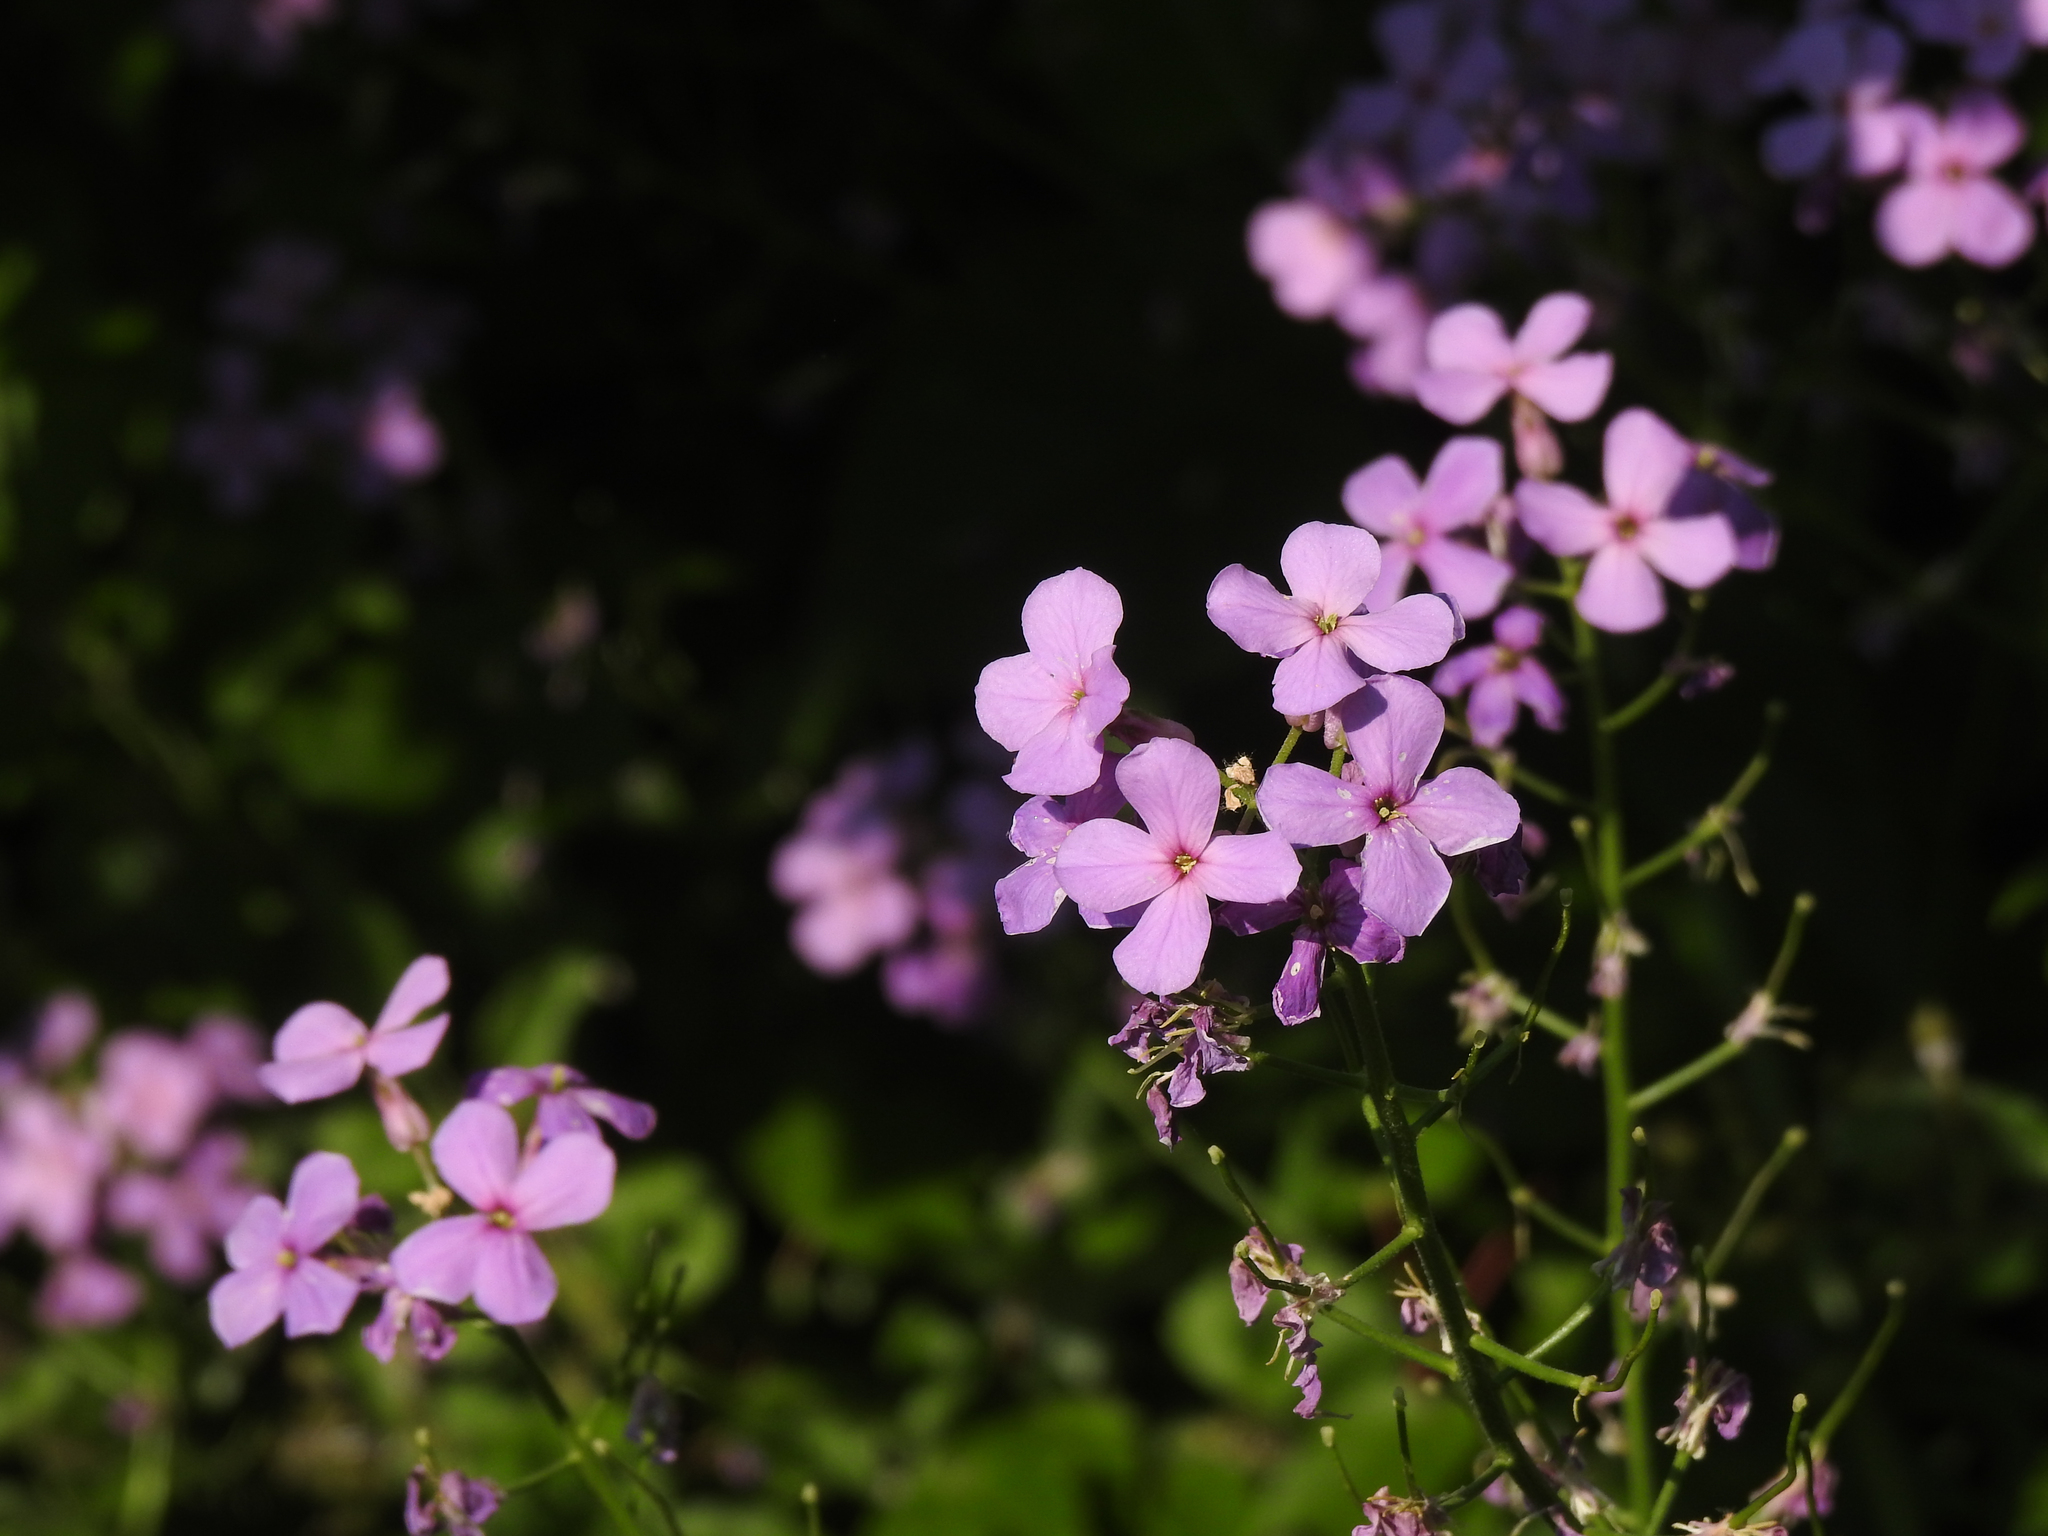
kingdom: Plantae
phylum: Tracheophyta
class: Magnoliopsida
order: Brassicales
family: Brassicaceae
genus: Hesperis
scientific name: Hesperis matronalis
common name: Dame's-violet
